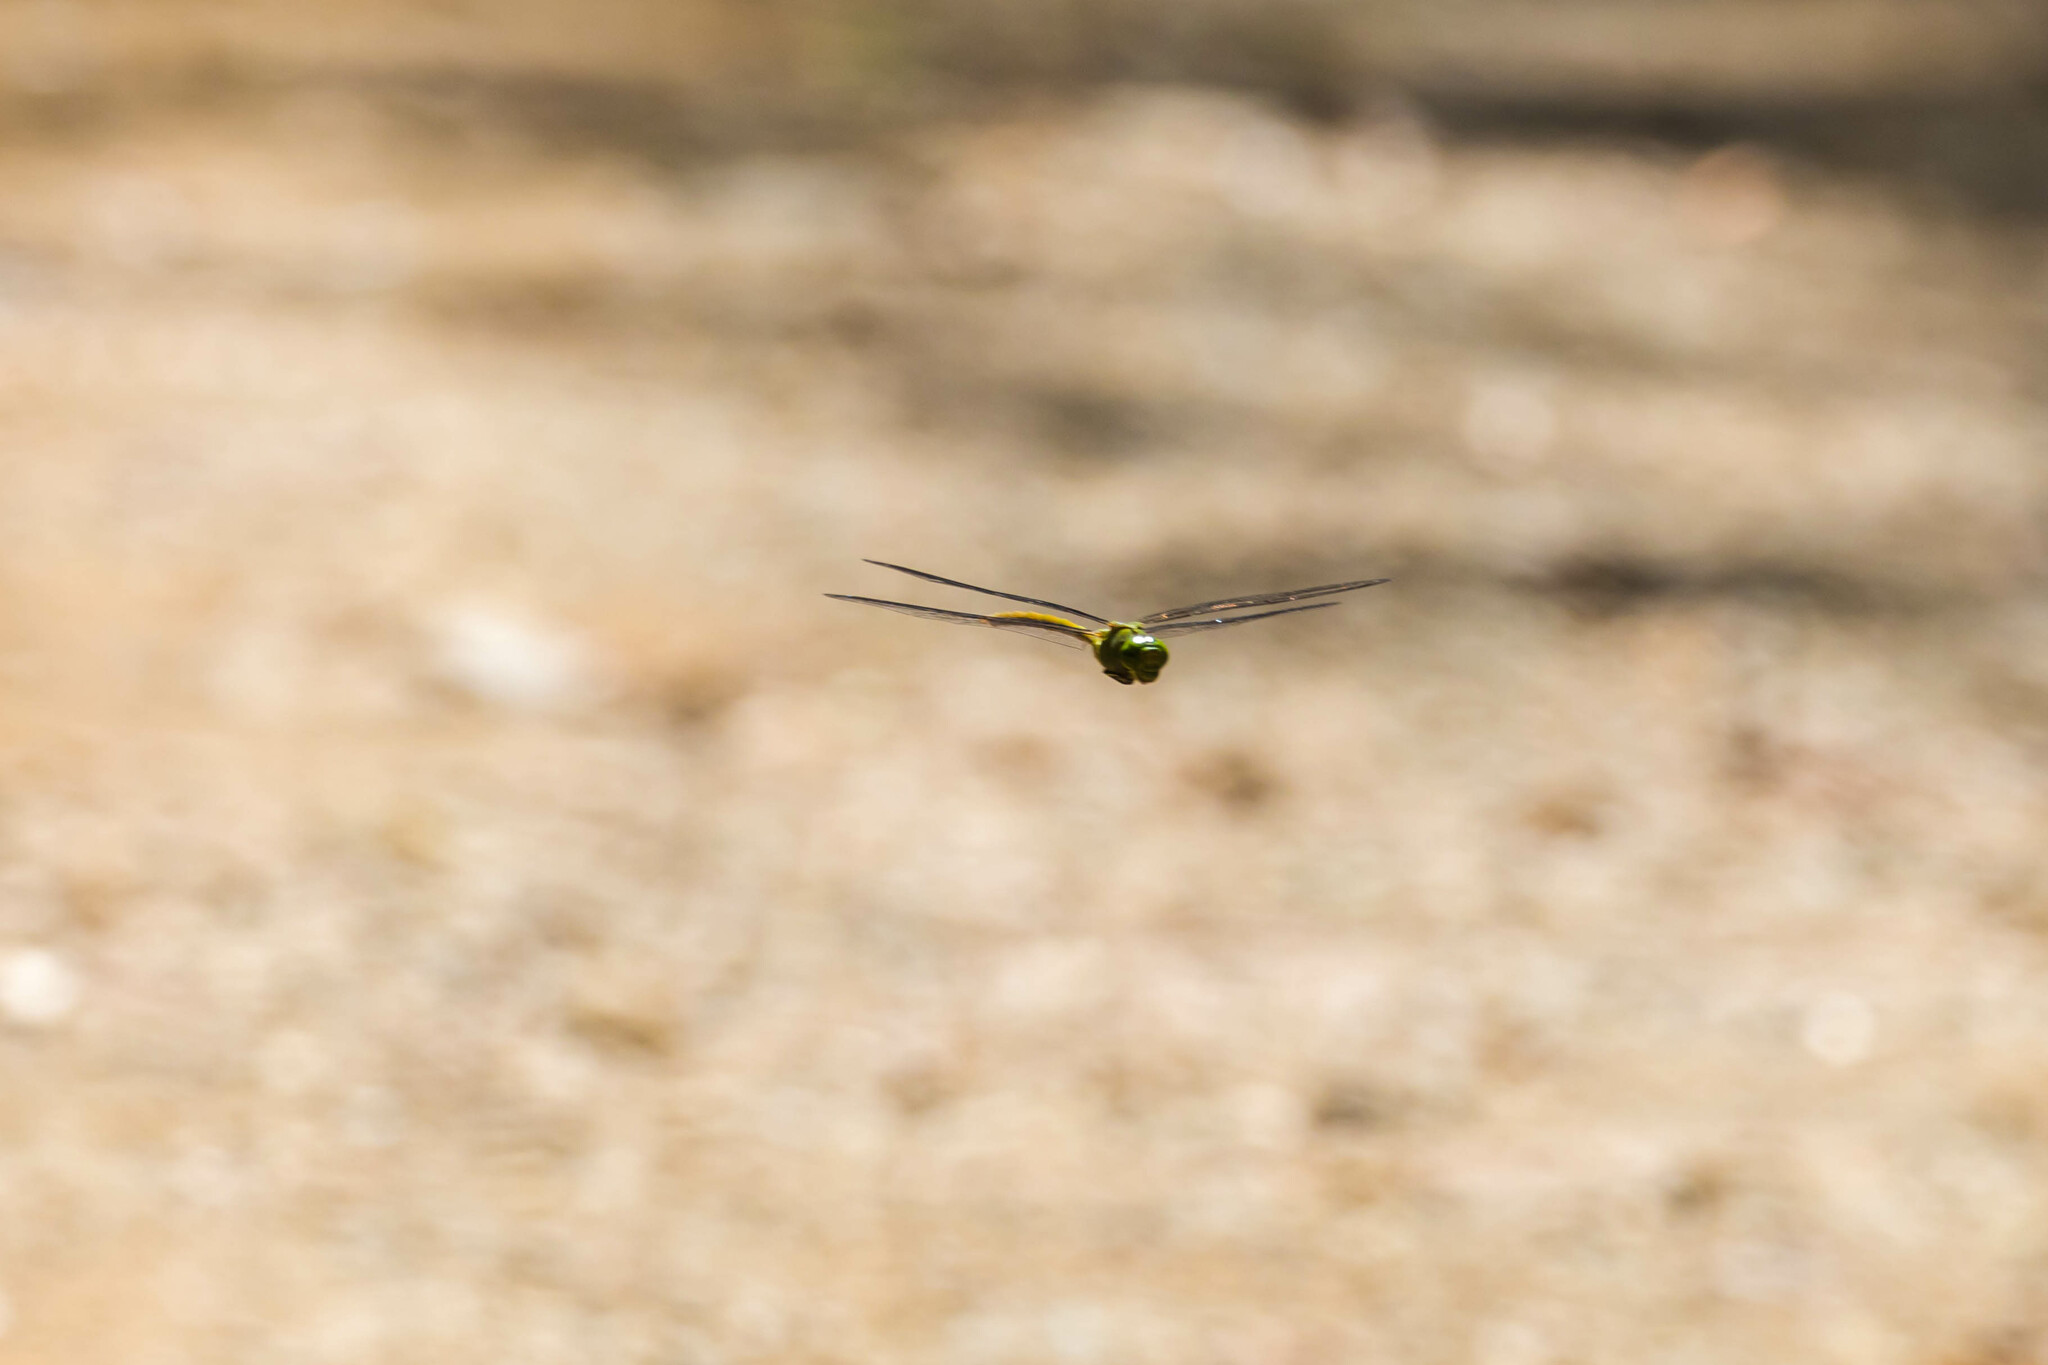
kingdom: Animalia
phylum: Arthropoda
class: Insecta
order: Odonata
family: Aeshnidae
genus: Staurophlebia
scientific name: Staurophlebia reticulata
